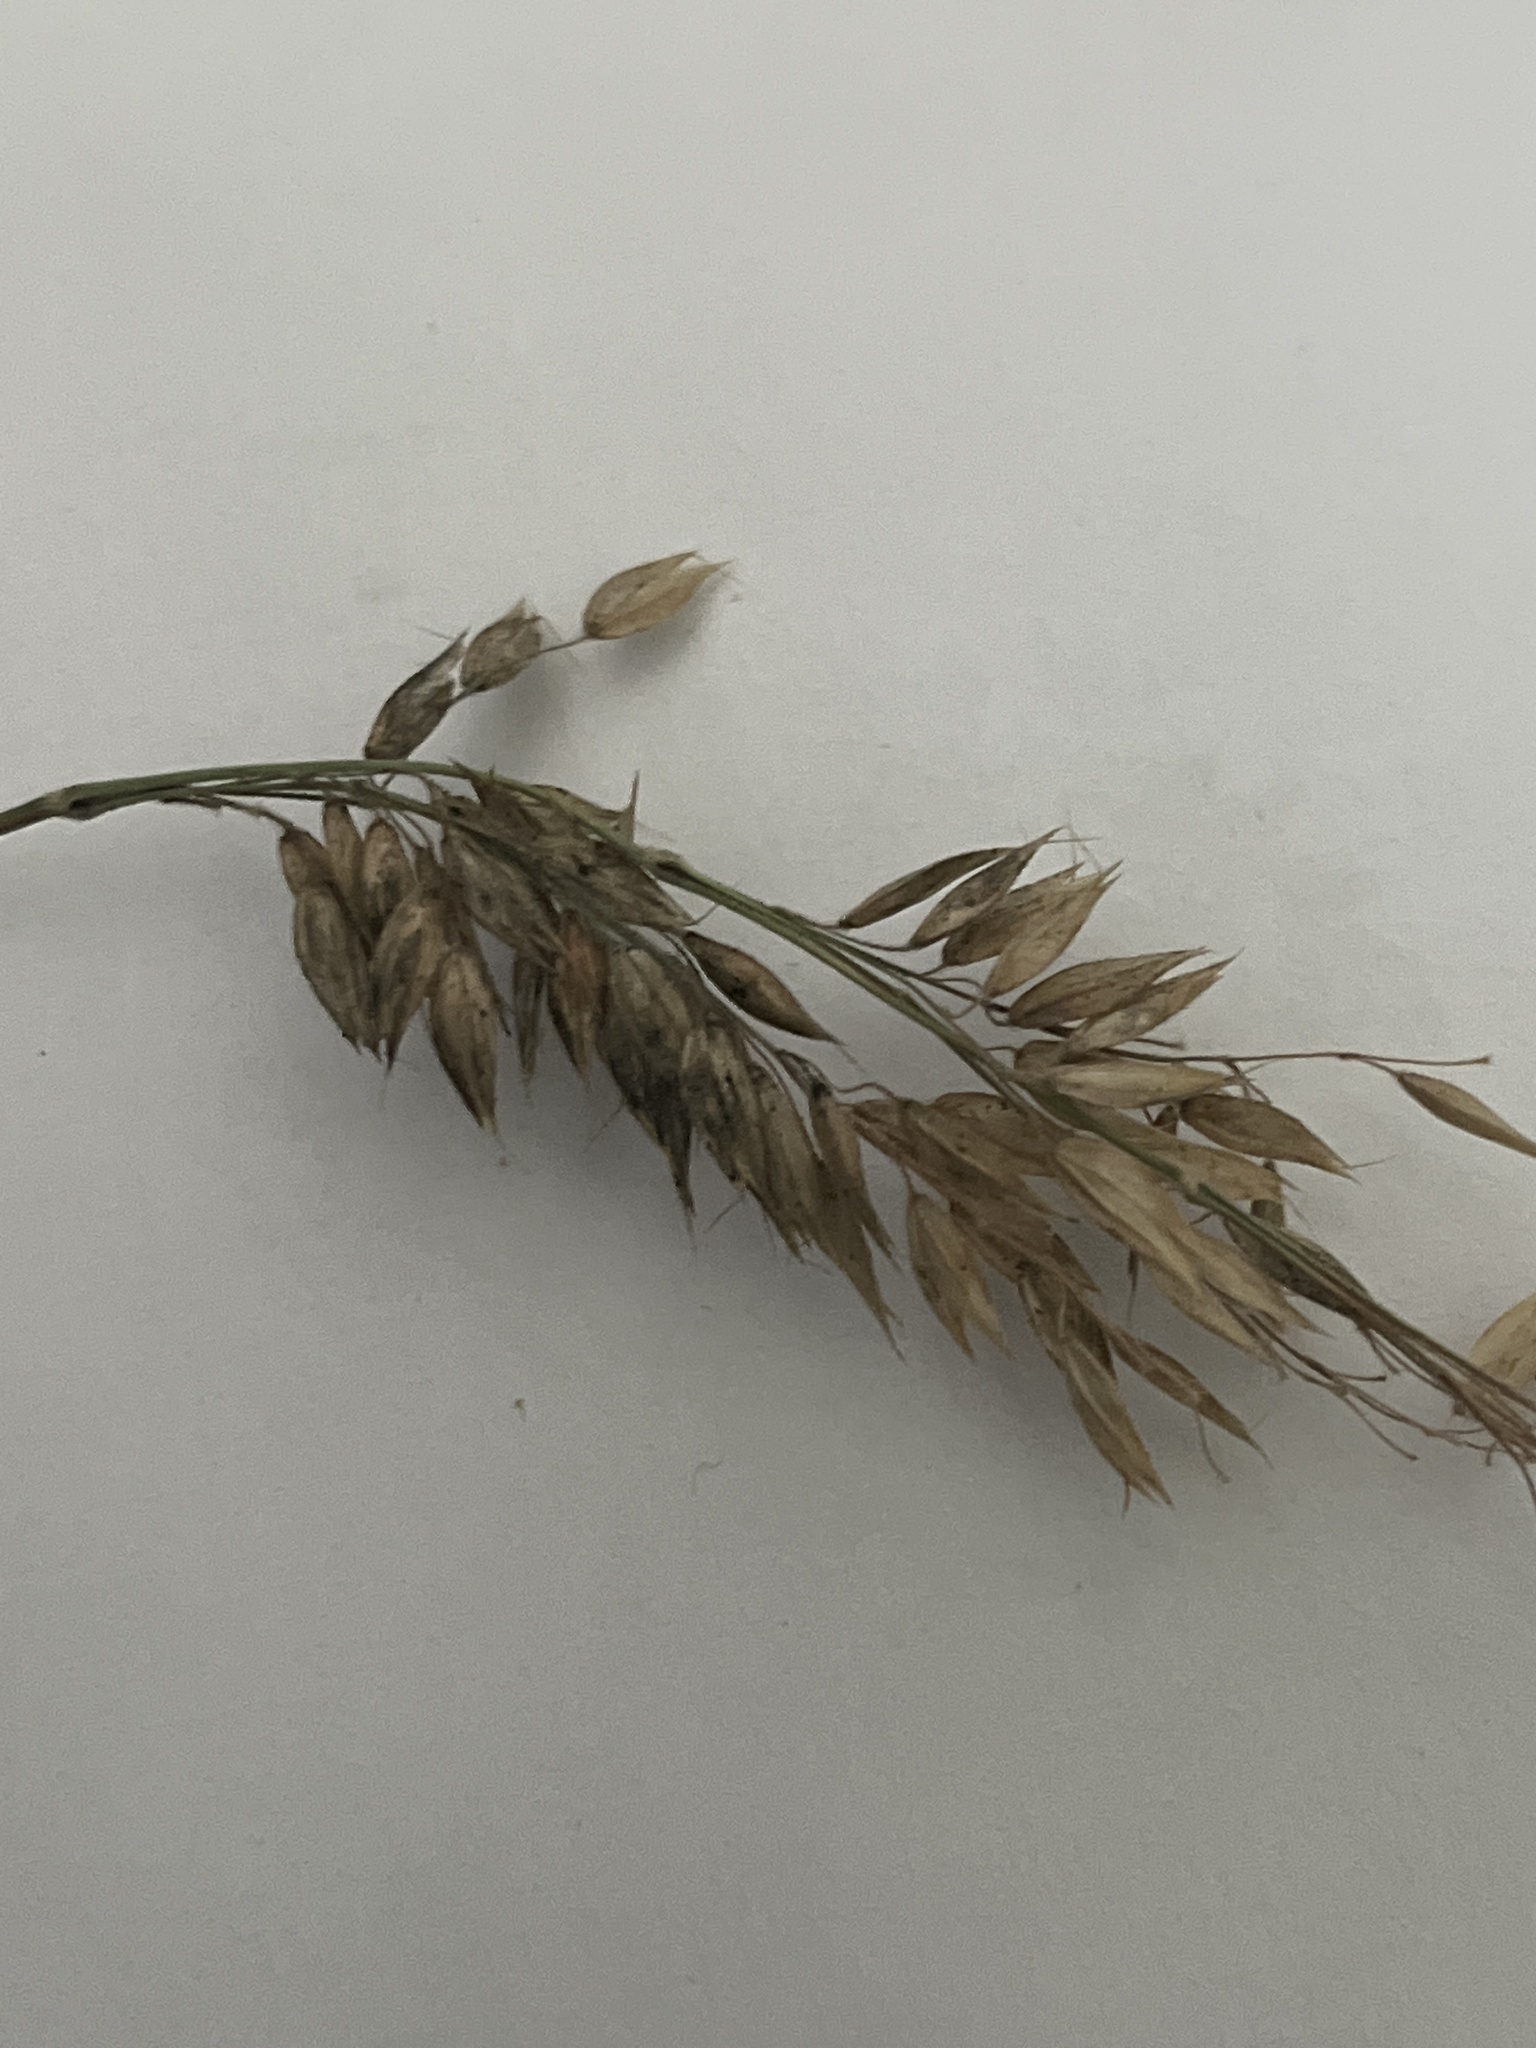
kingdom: Fungi
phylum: Basidiomycota
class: Ustilaginomycetes
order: Ustilaginales
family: Ustilaginaceae
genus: Ustilago
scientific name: Ustilago avenae
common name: Loose smut of oats & oat grass
